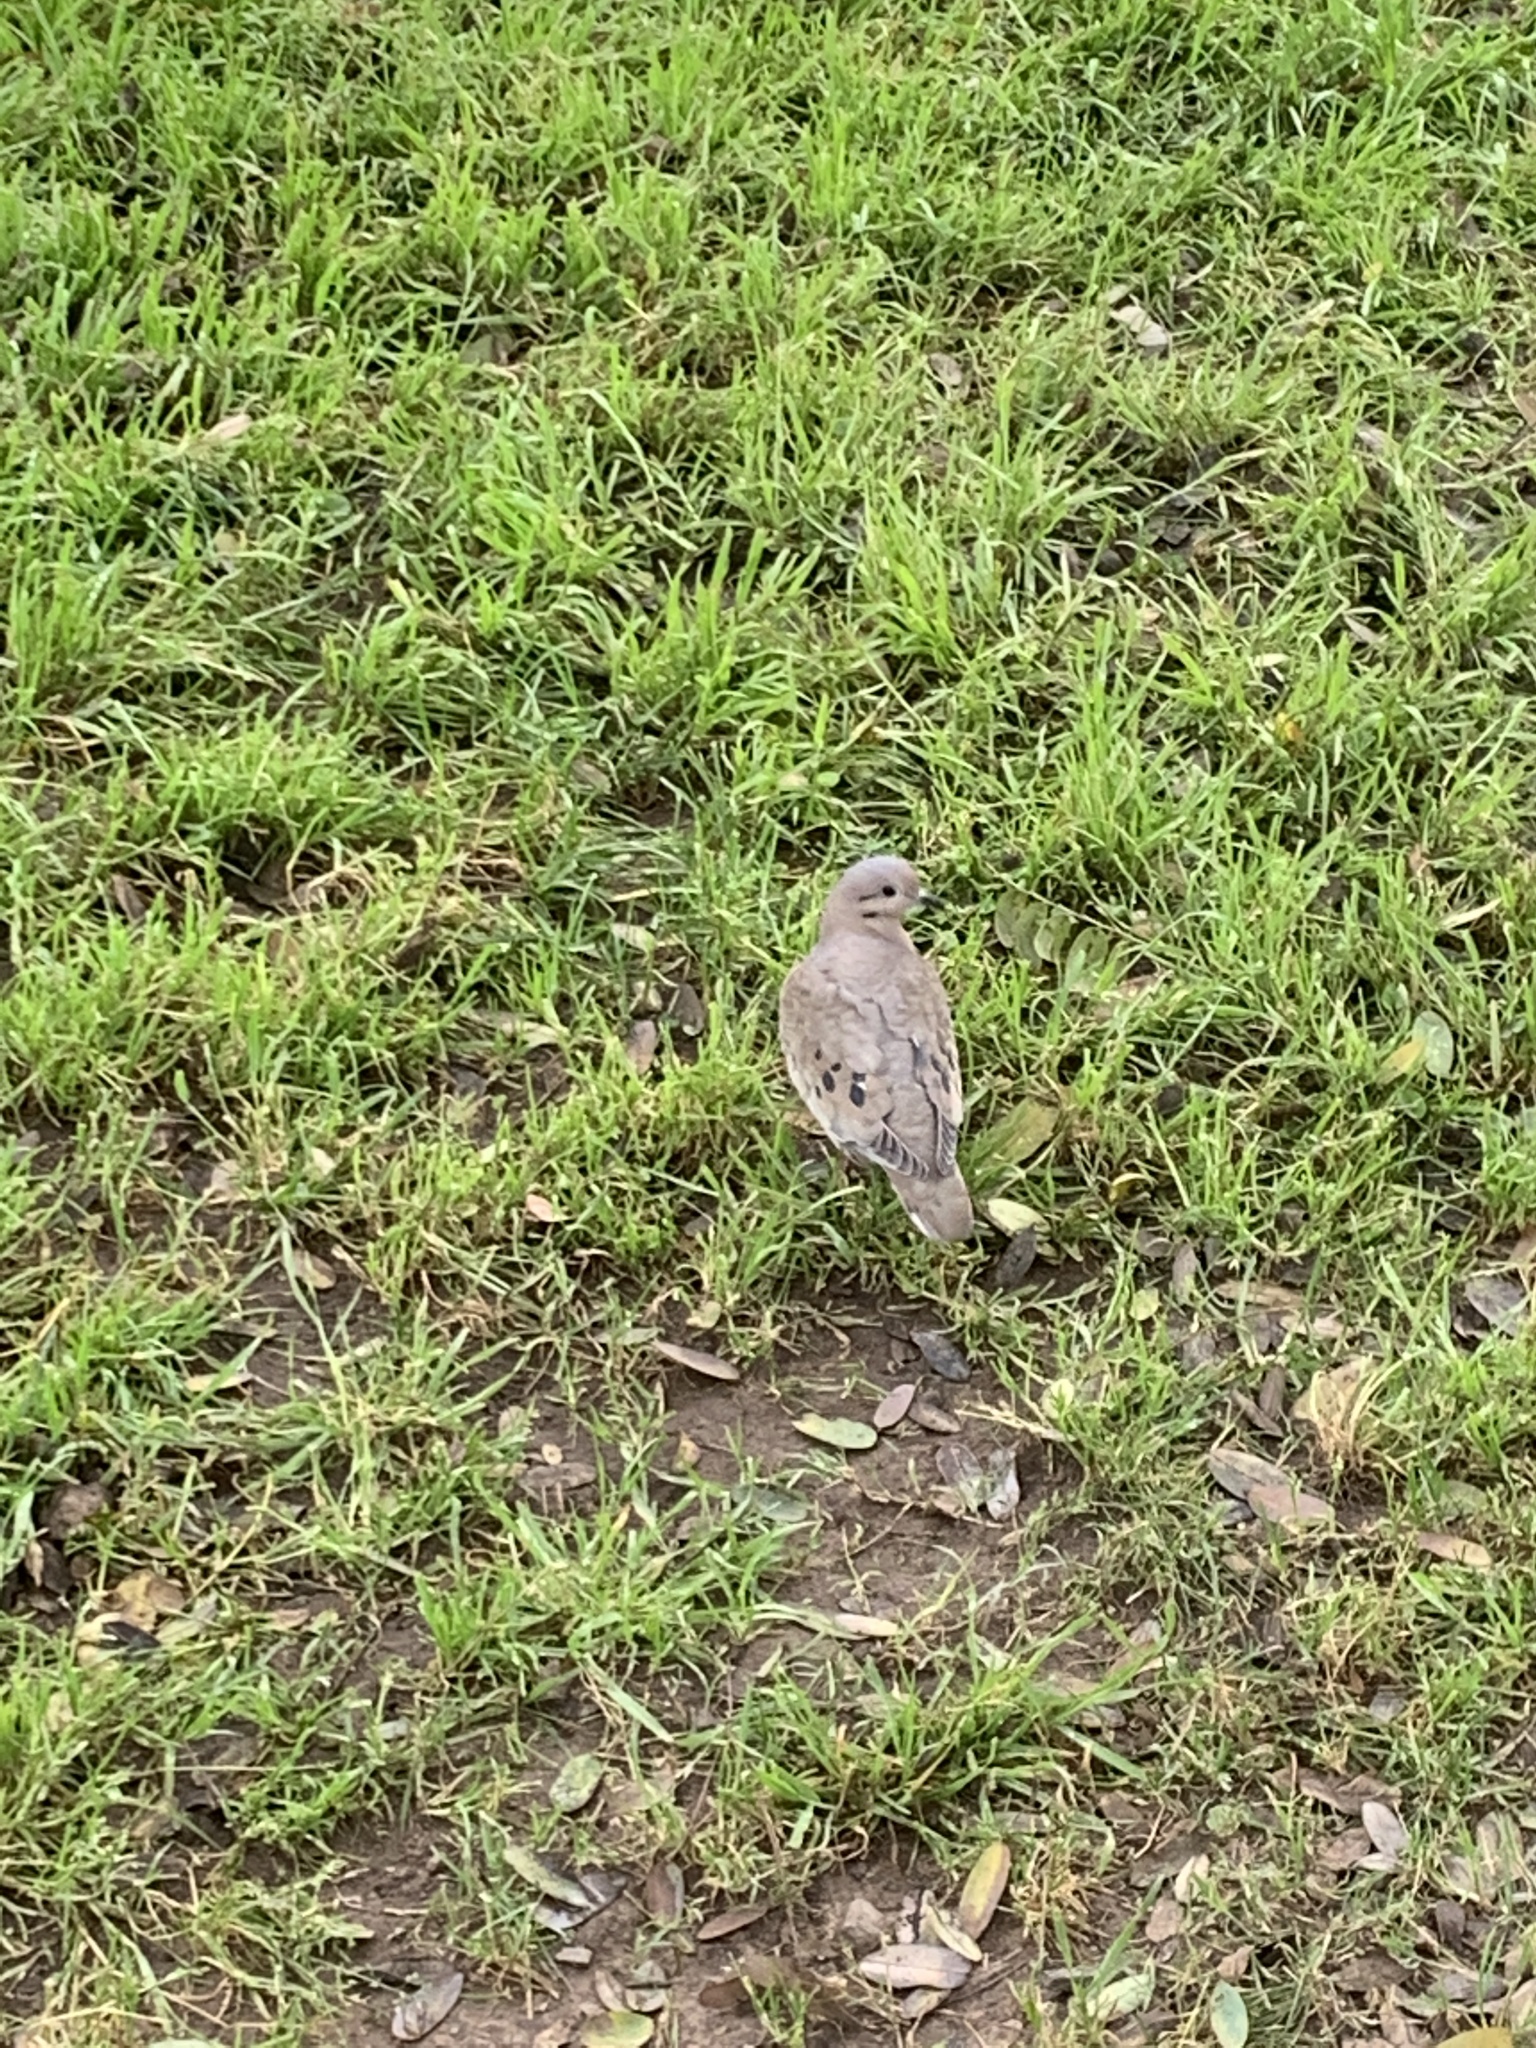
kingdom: Animalia
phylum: Chordata
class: Aves
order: Columbiformes
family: Columbidae
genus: Zenaida
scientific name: Zenaida auriculata
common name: Eared dove
